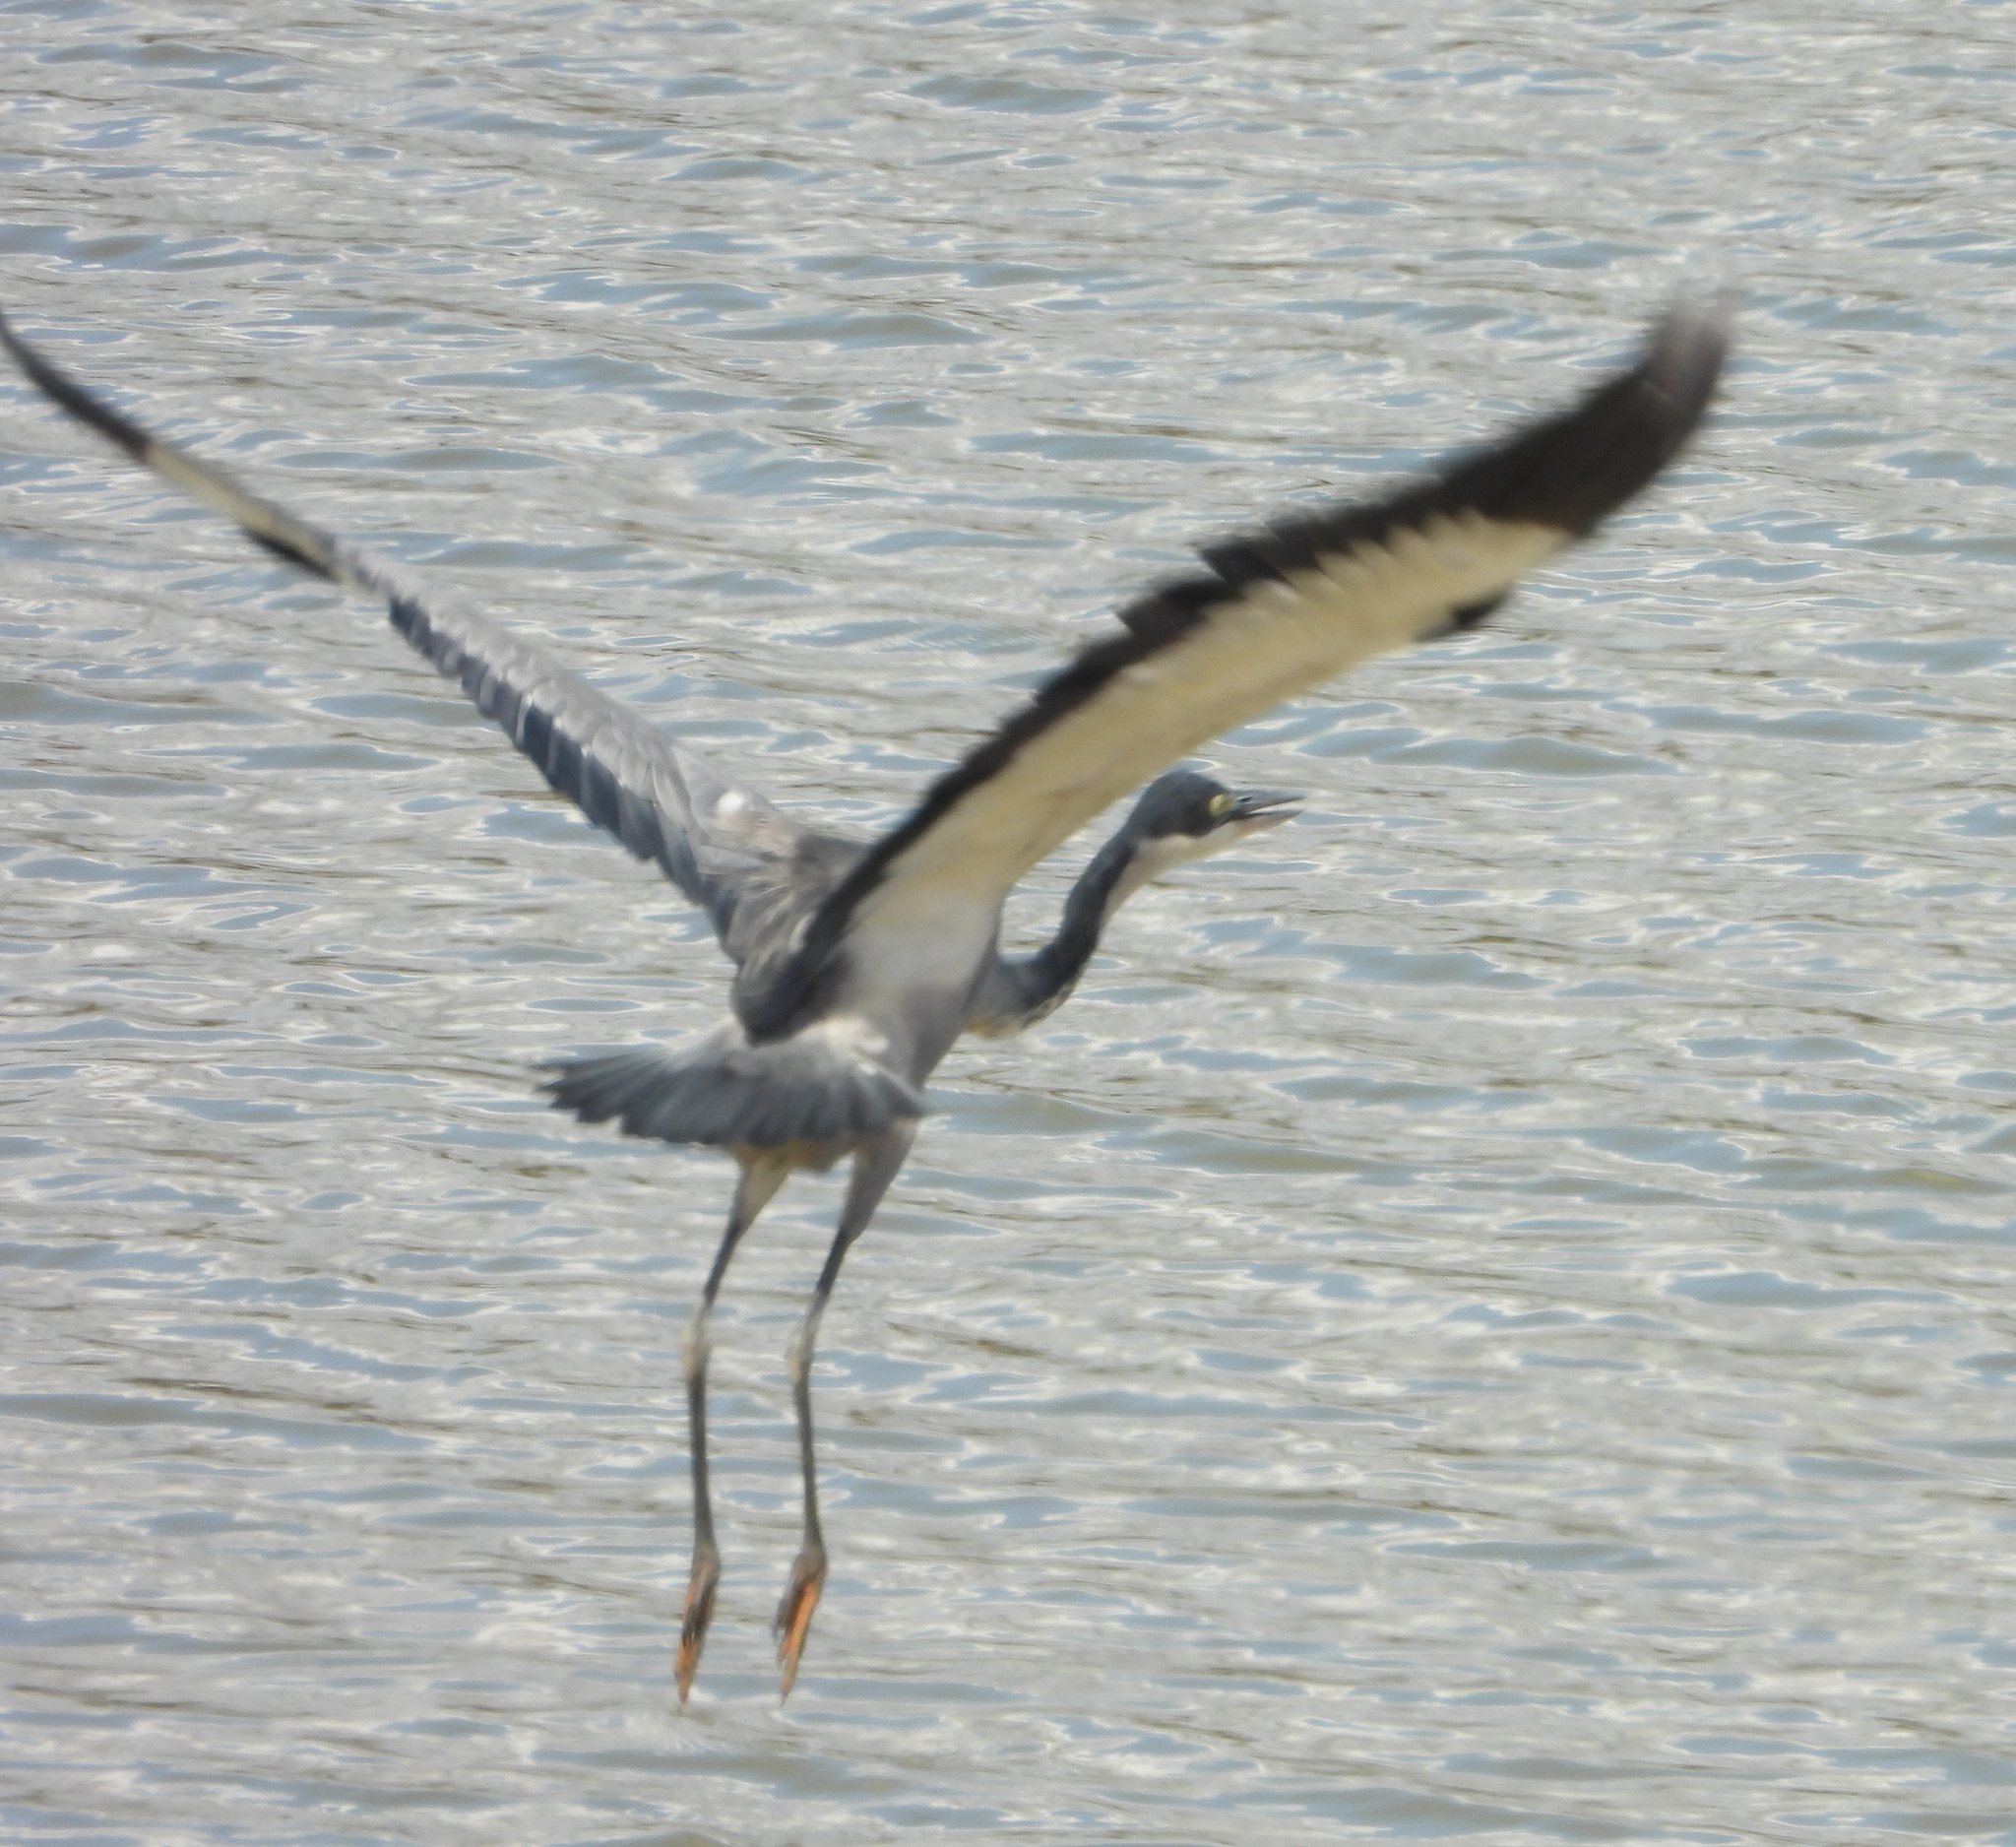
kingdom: Animalia
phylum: Chordata
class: Aves
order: Pelecaniformes
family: Ardeidae
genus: Ardea
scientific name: Ardea melanocephala
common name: Black-headed heron
